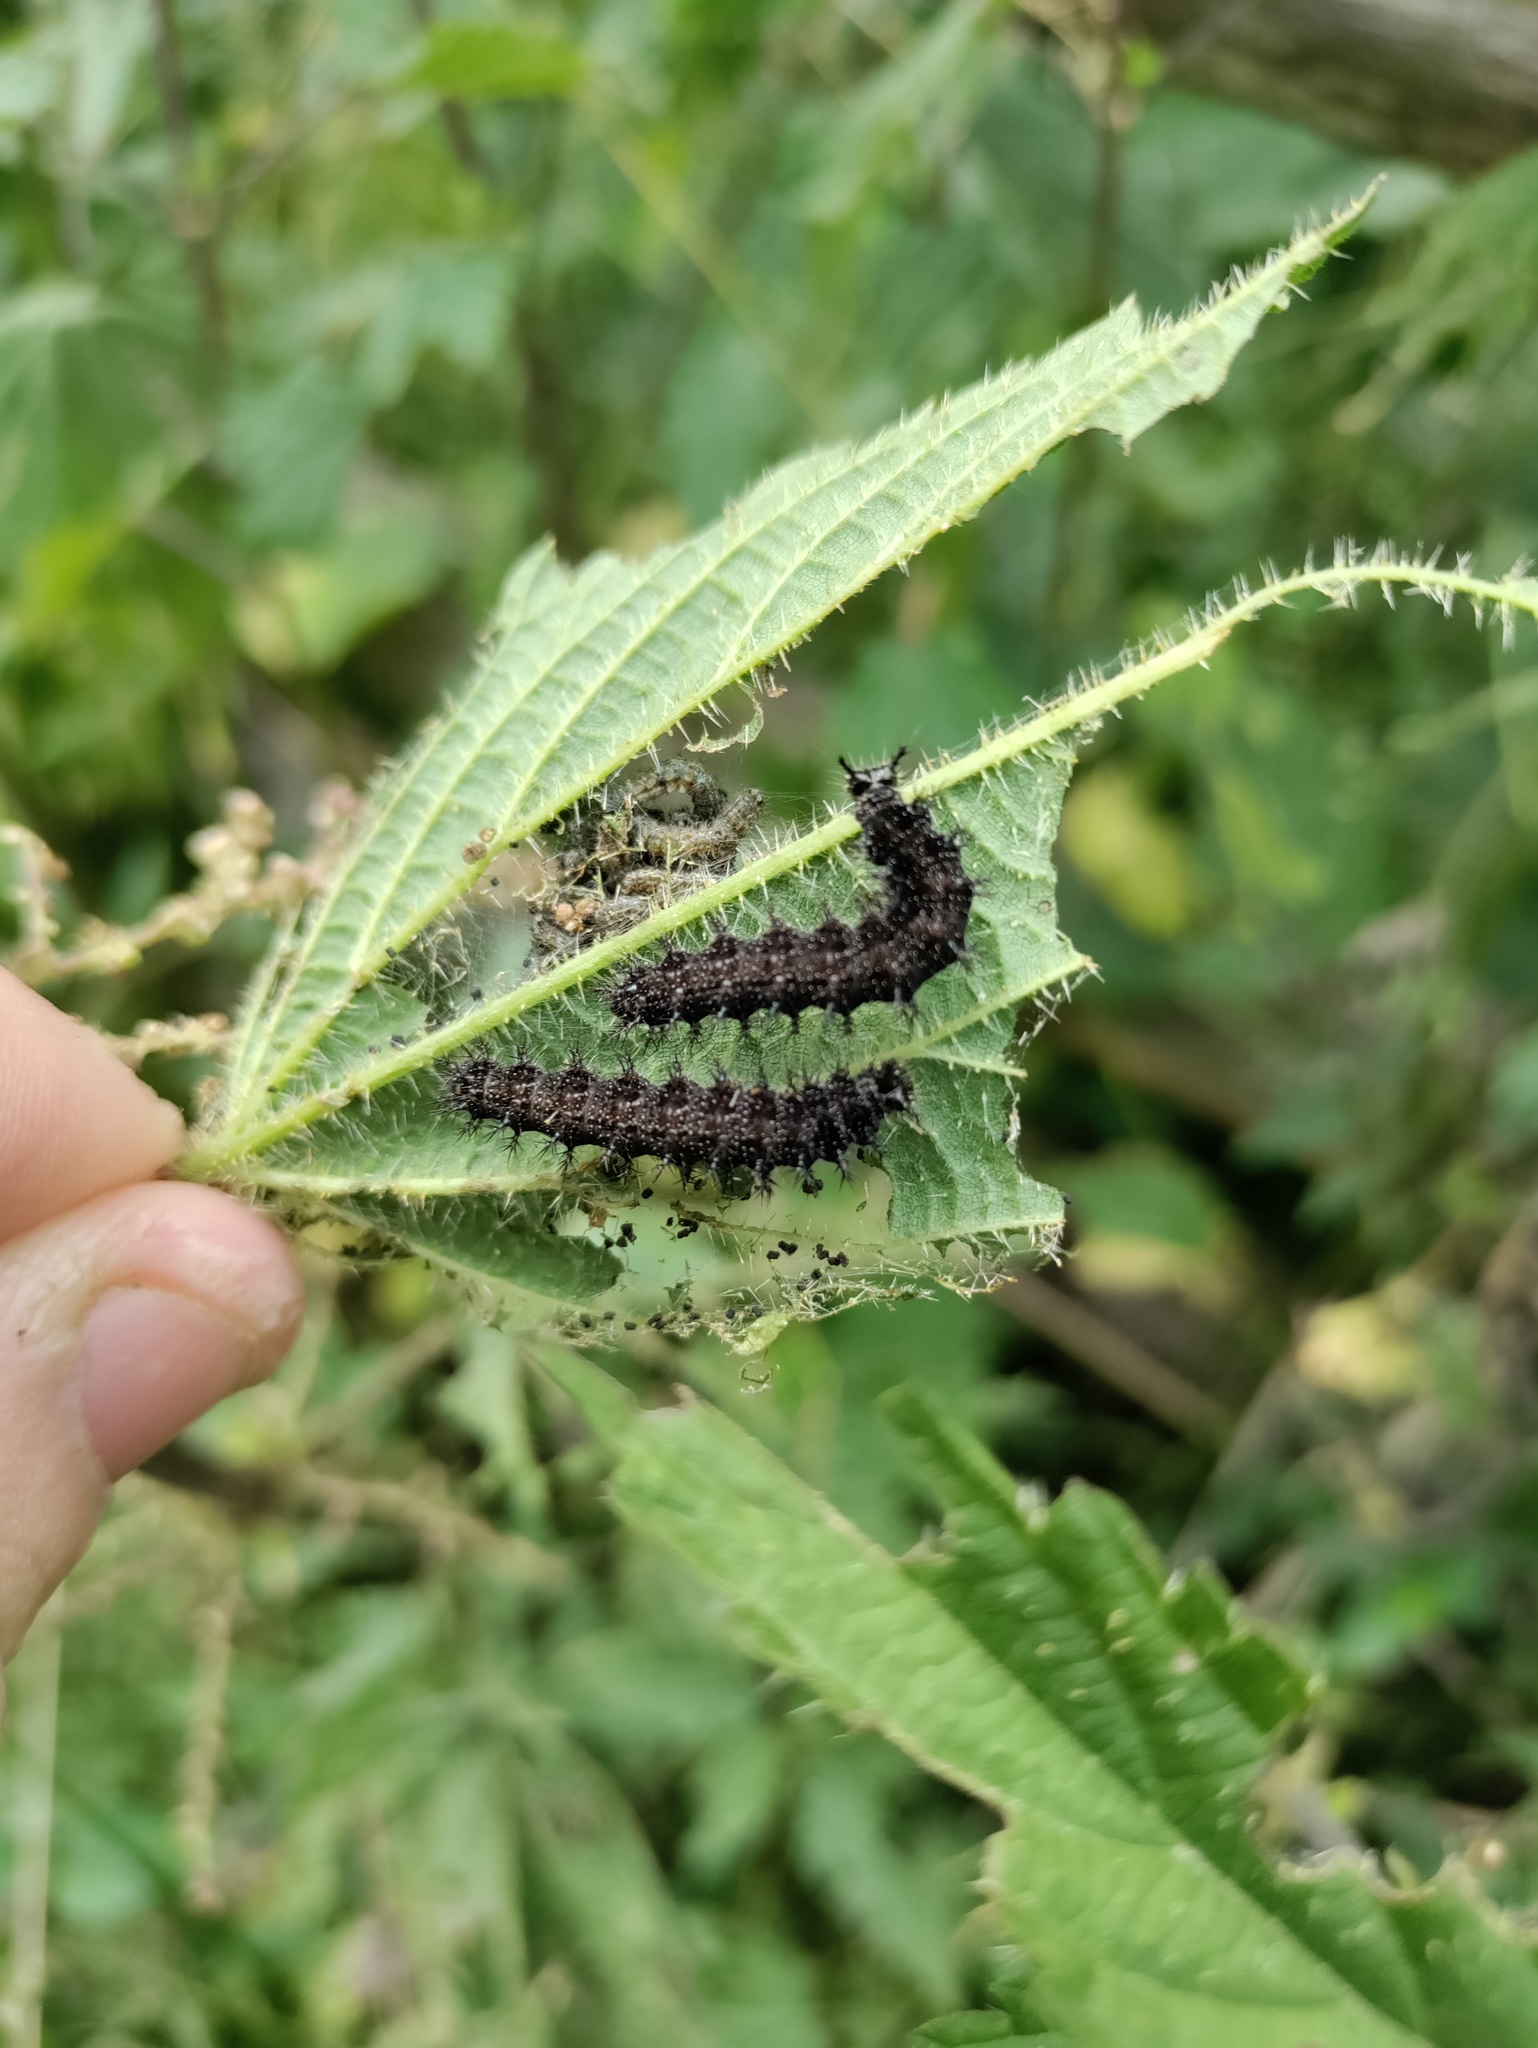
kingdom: Animalia
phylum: Arthropoda
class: Insecta
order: Lepidoptera
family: Nymphalidae
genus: Araschnia
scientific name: Araschnia levana
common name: Map butterfly
